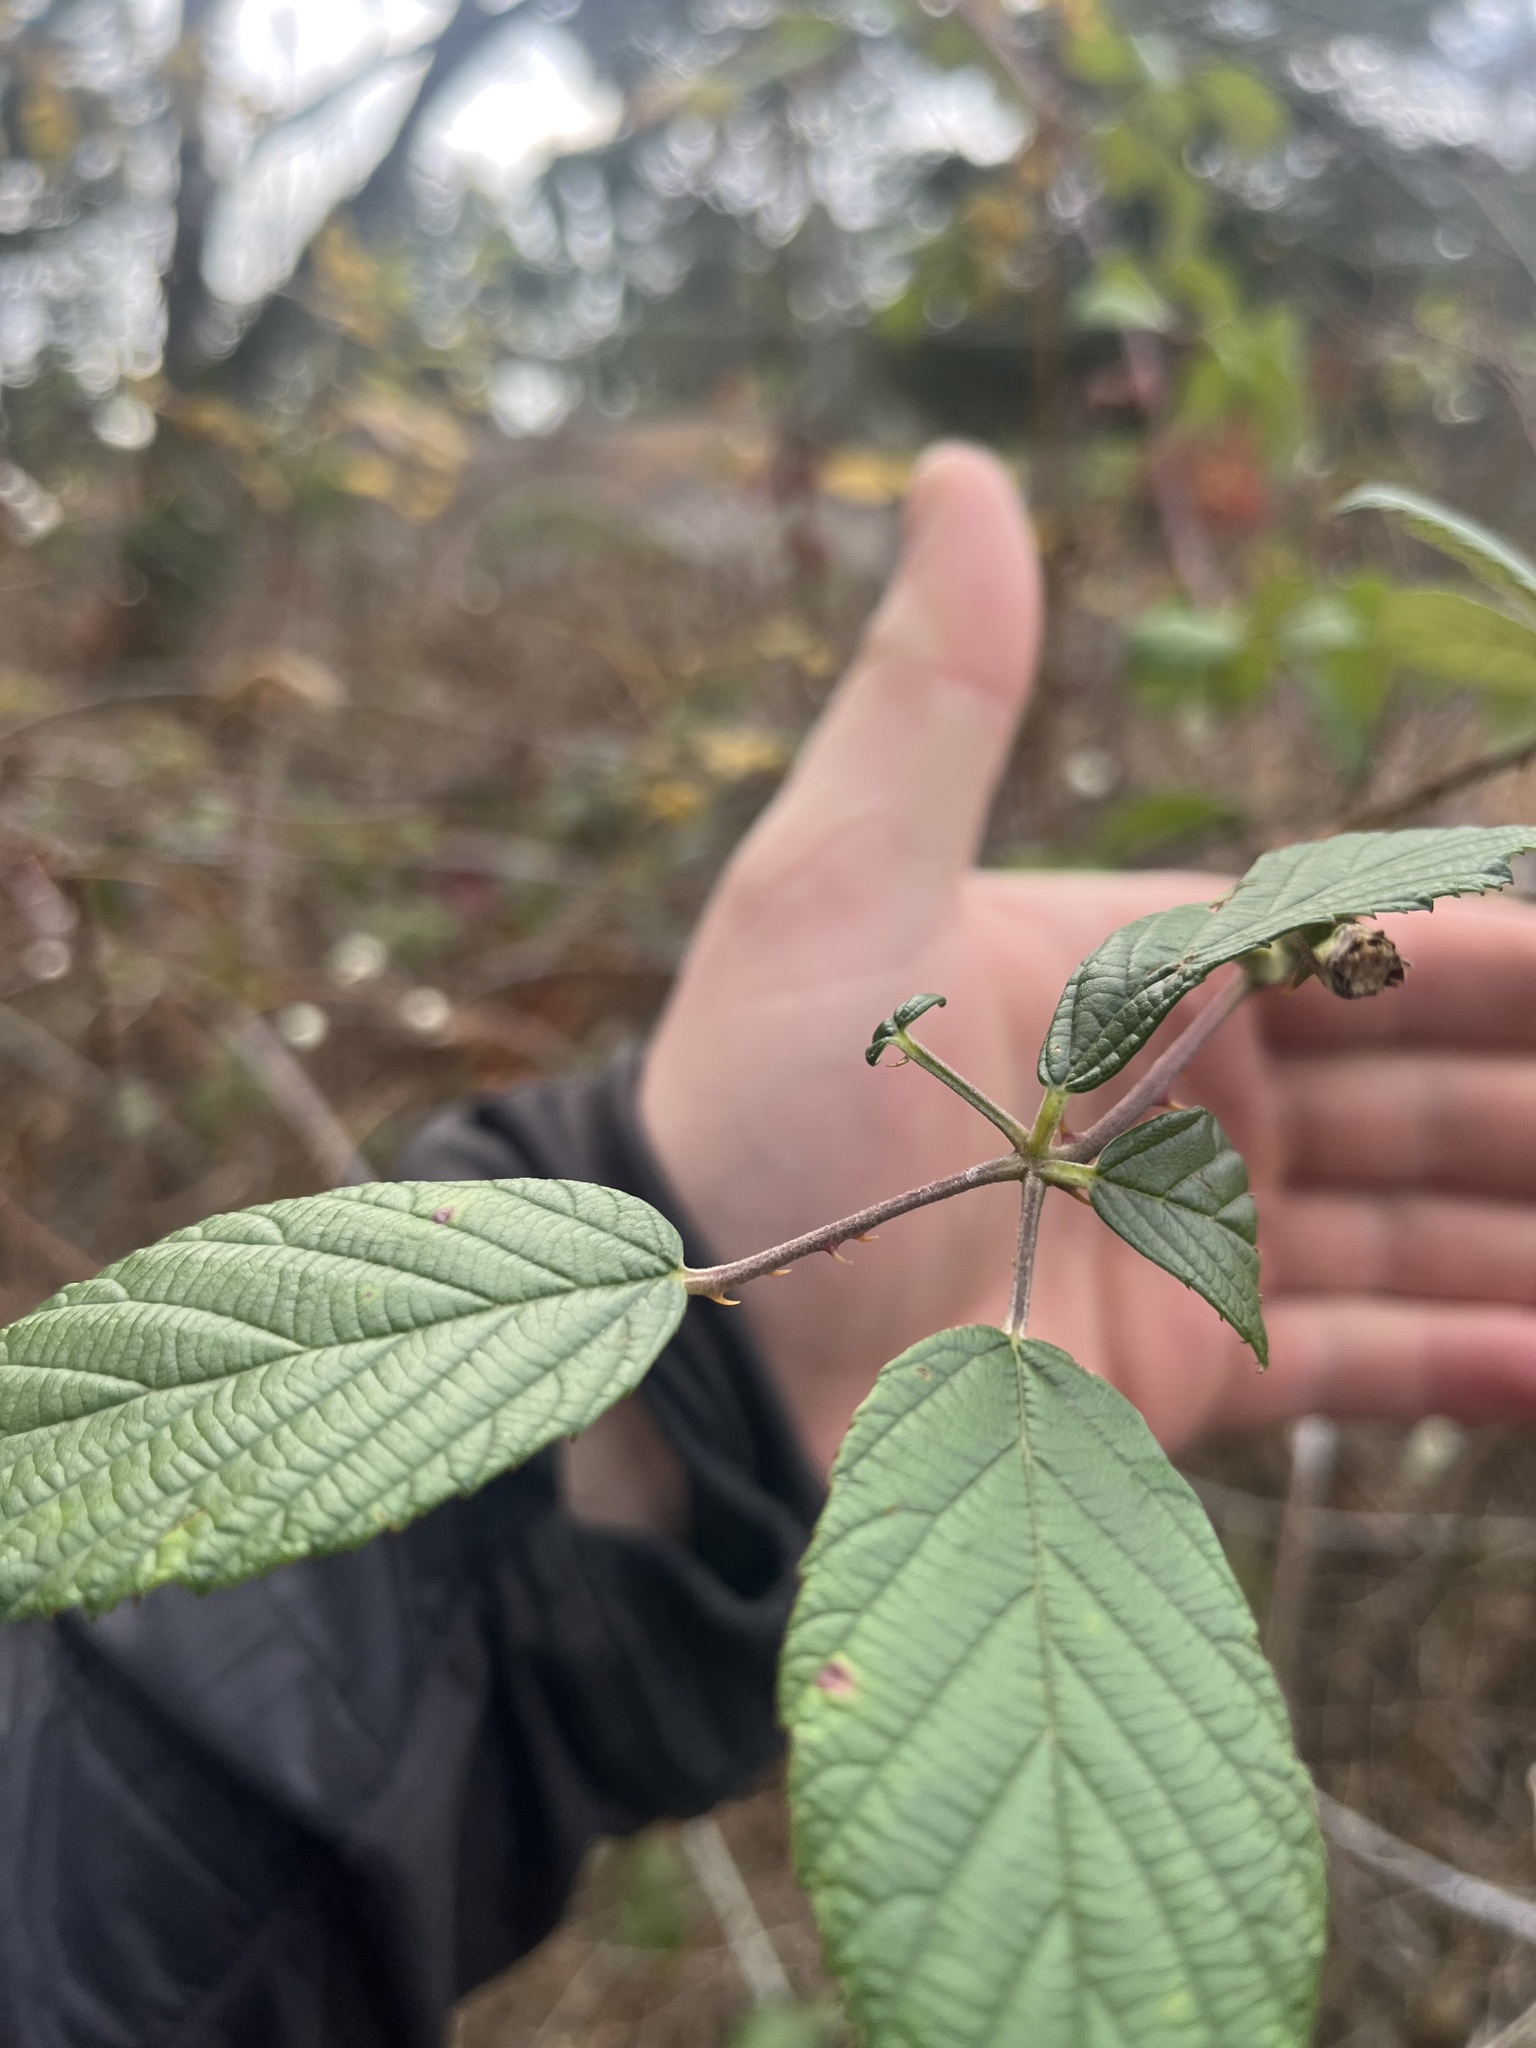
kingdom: Plantae
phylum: Tracheophyta
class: Magnoliopsida
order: Rosales
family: Rosaceae
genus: Rubus
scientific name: Rubus bifrons
